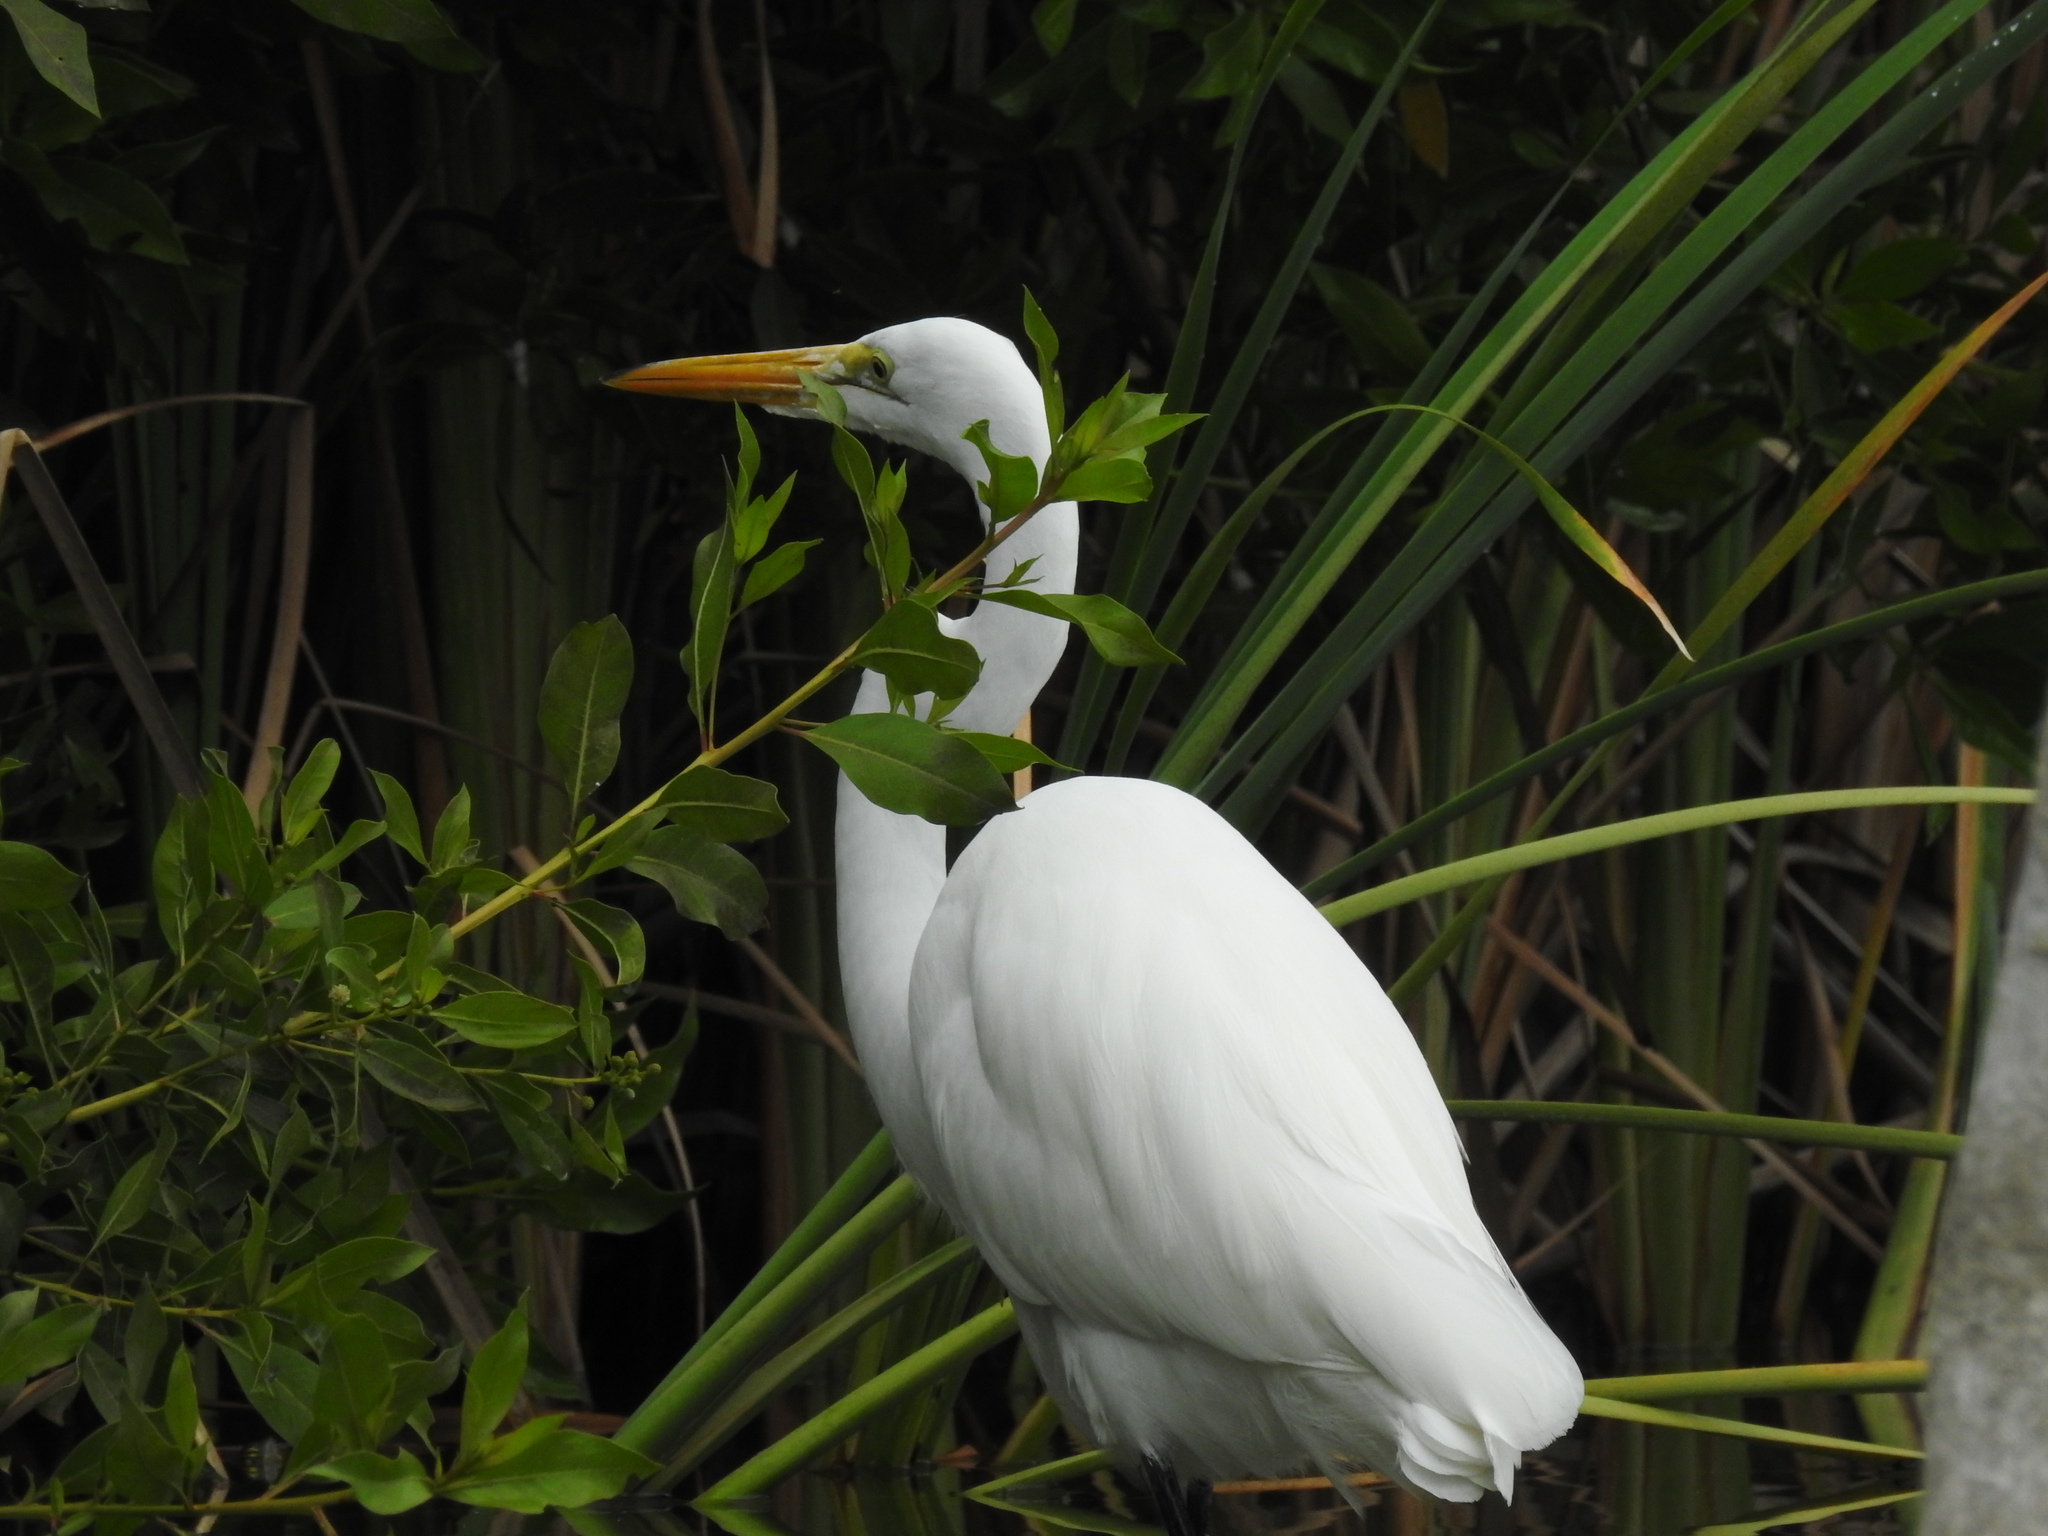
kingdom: Animalia
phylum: Chordata
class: Aves
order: Pelecaniformes
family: Ardeidae
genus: Ardea
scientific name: Ardea alba
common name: Great egret
